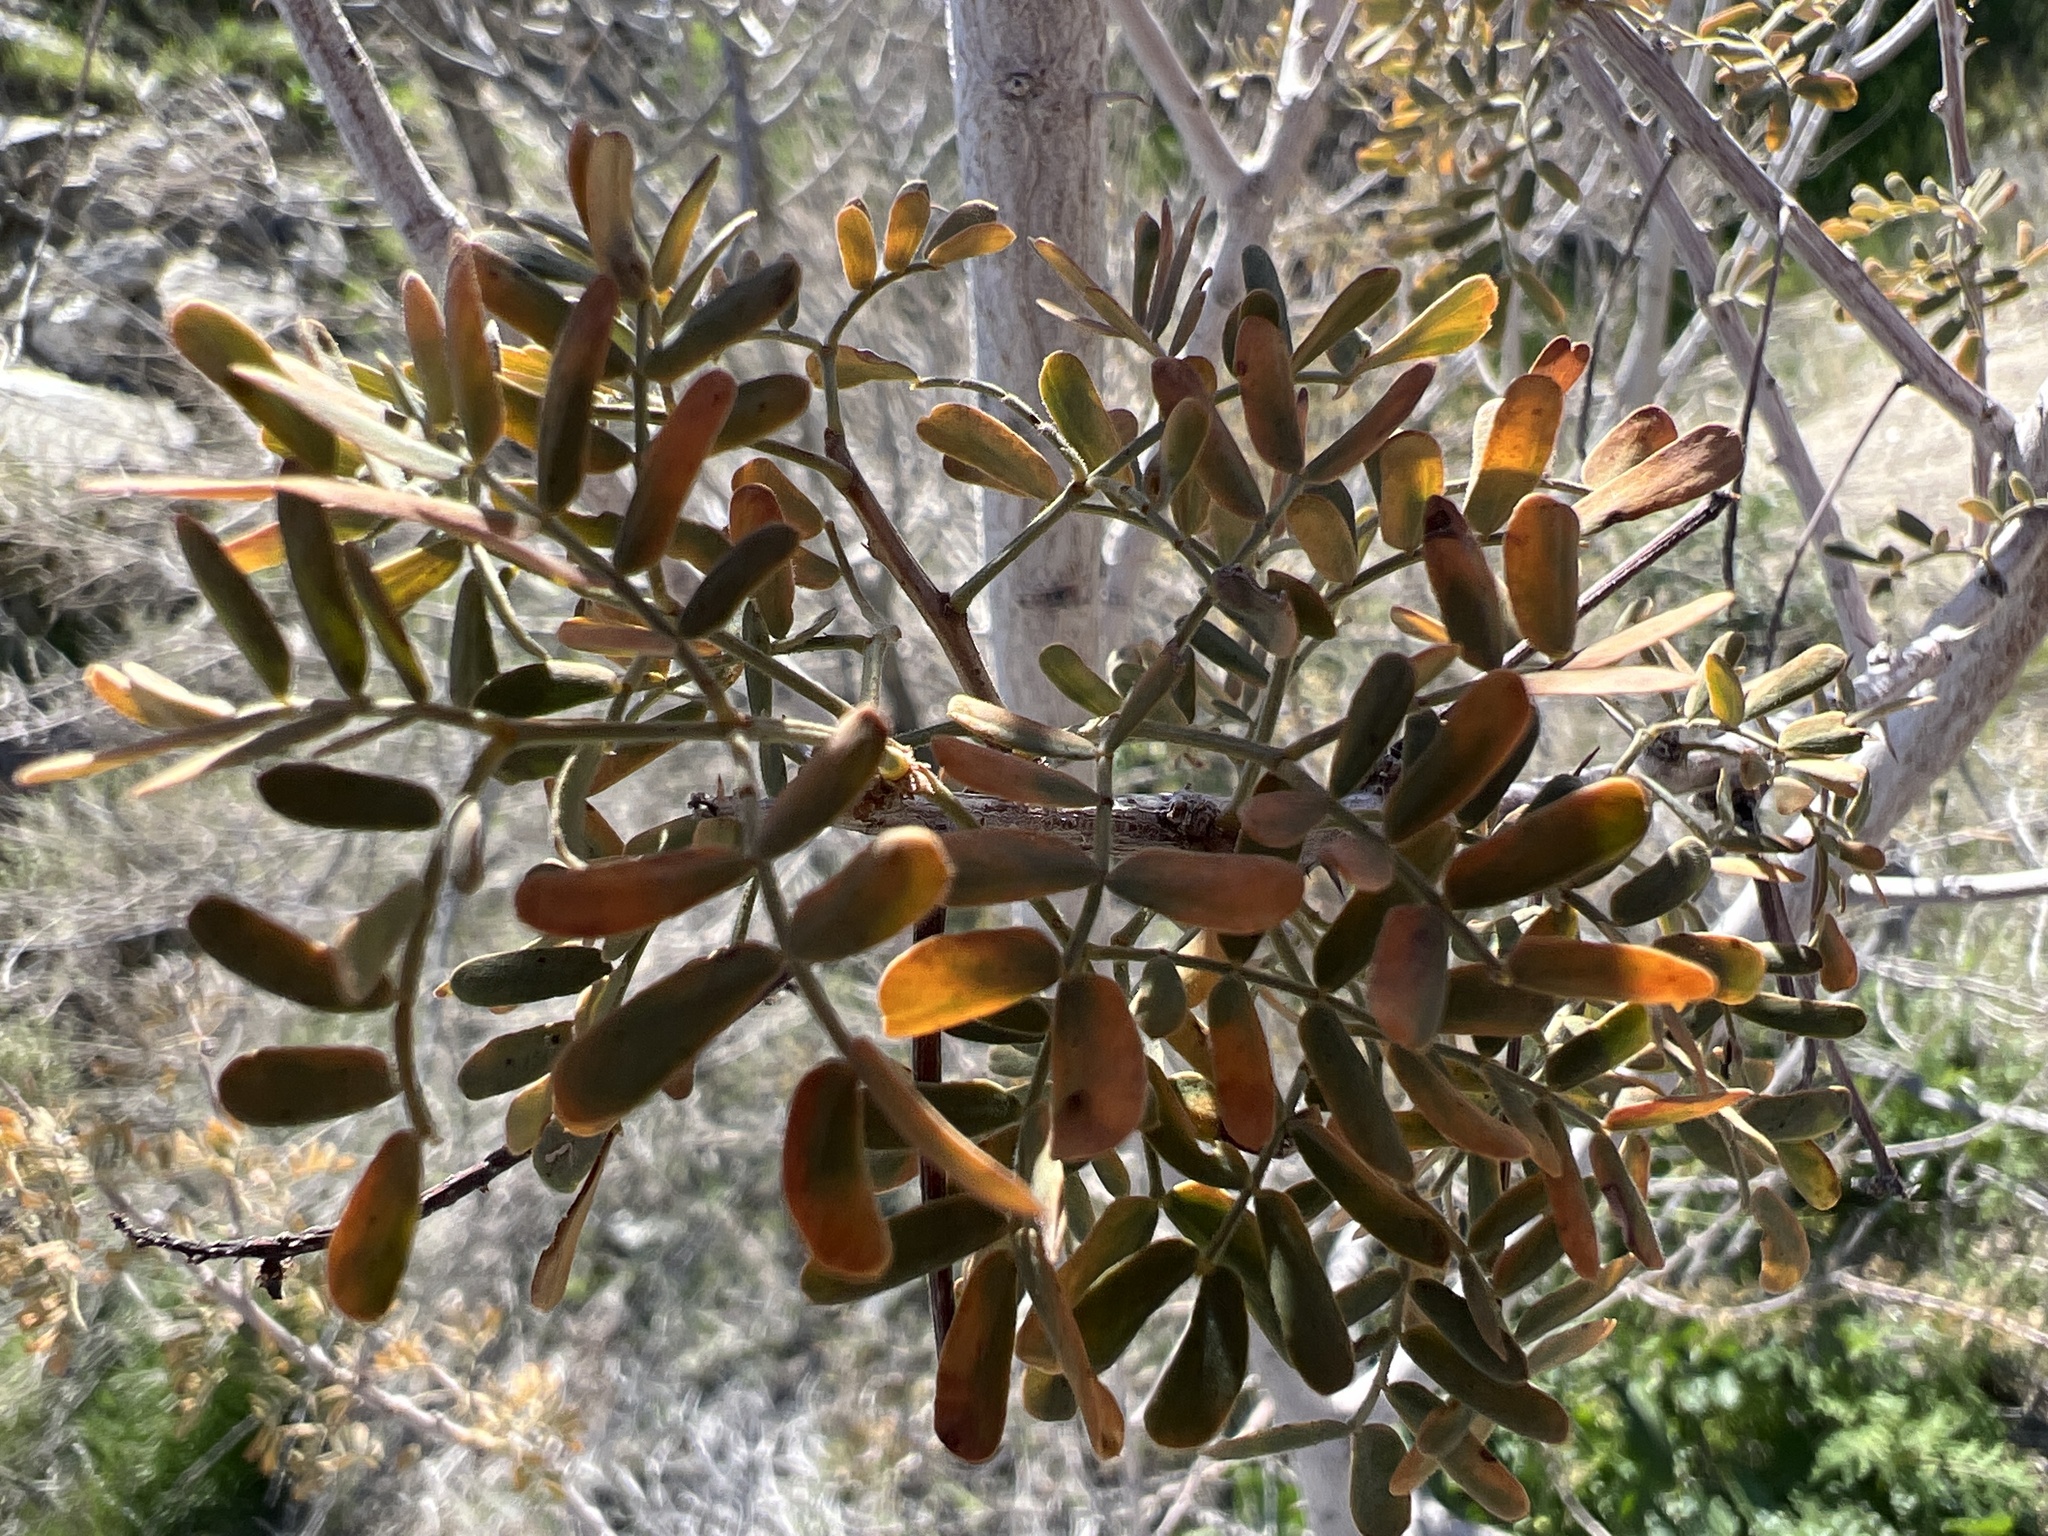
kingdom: Plantae
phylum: Tracheophyta
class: Magnoliopsida
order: Fabales
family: Fabaceae
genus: Senegalia
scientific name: Senegalia greggii
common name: Texas-mimosa
